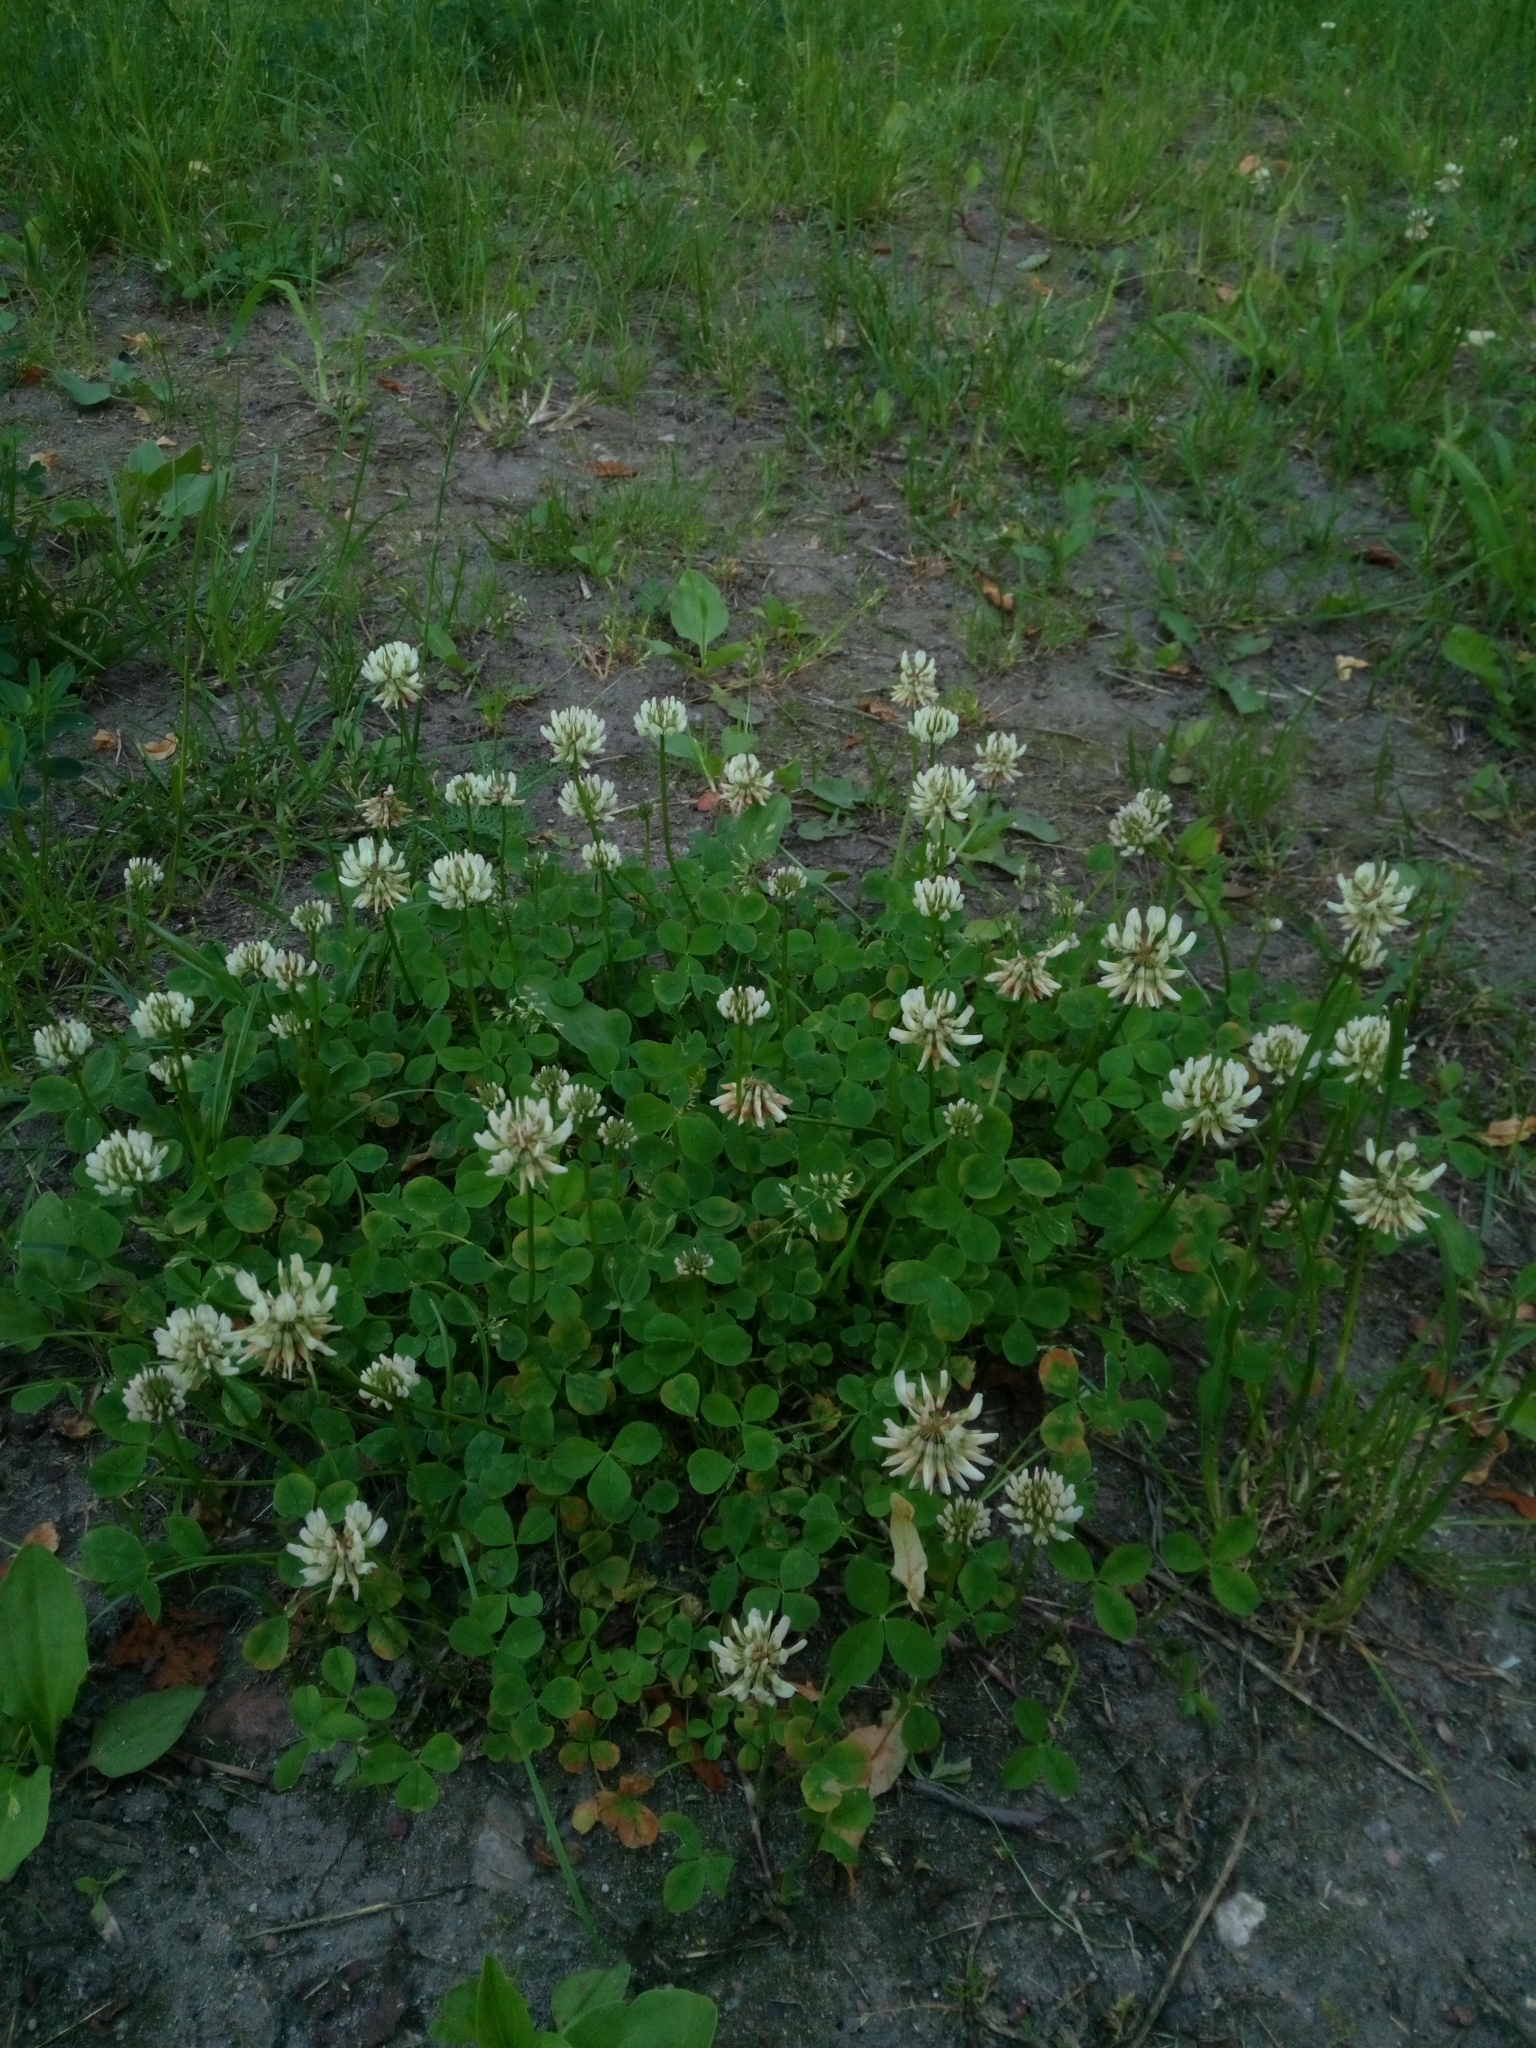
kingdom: Plantae
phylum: Tracheophyta
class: Magnoliopsida
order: Fabales
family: Fabaceae
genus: Trifolium
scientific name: Trifolium repens
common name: White clover
